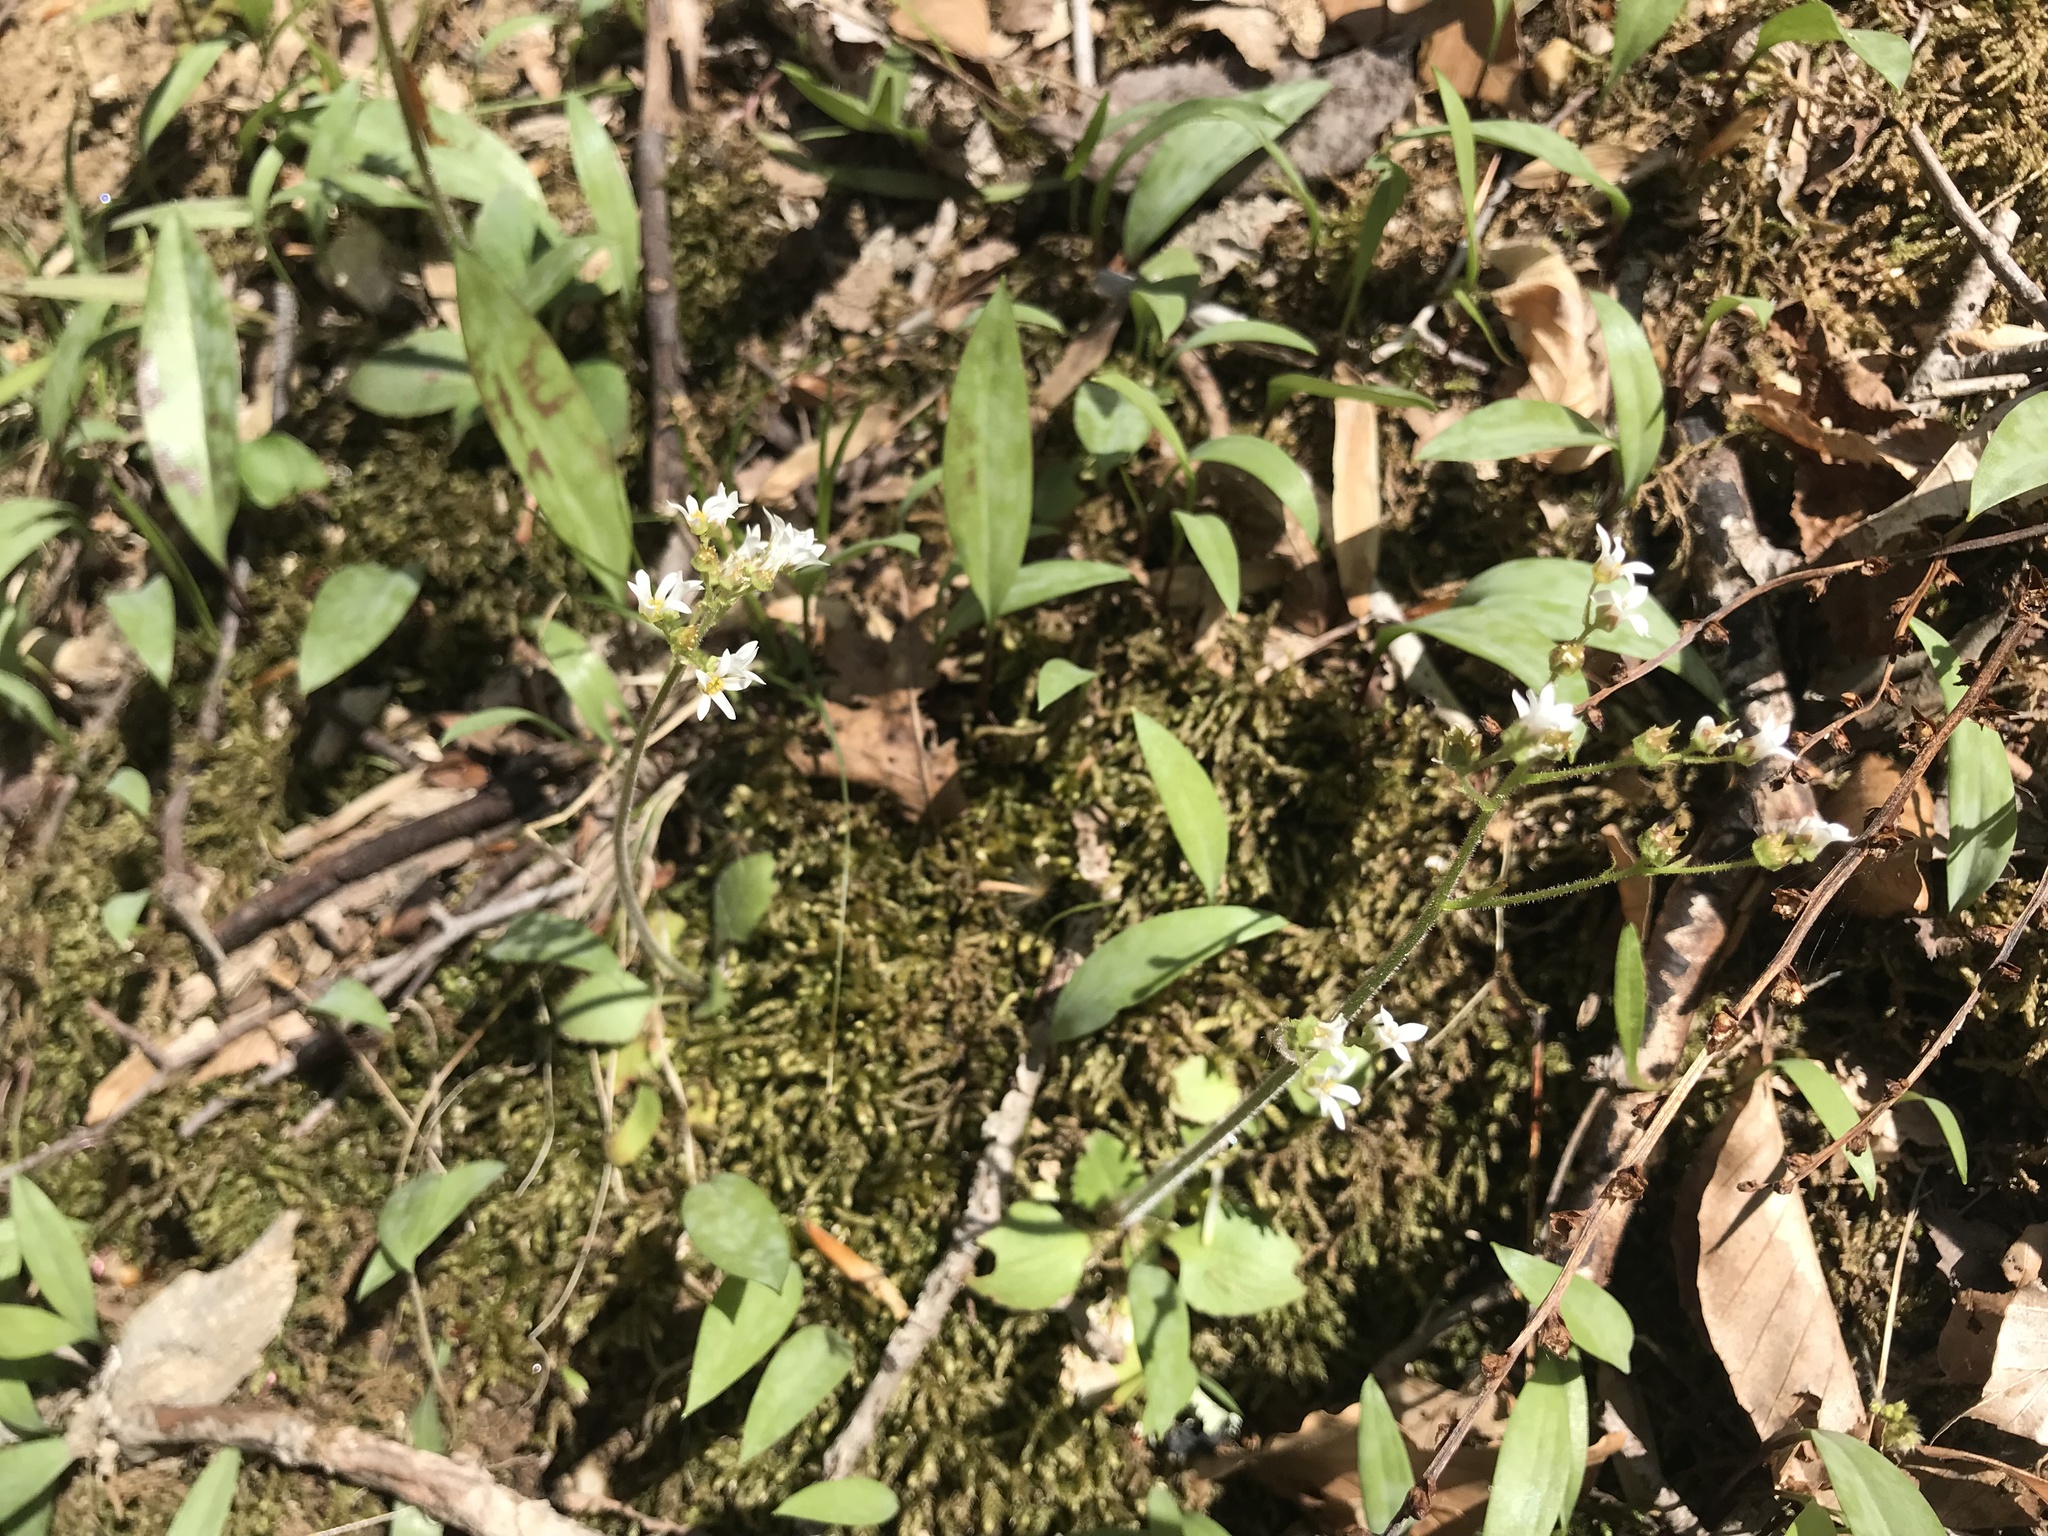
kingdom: Plantae
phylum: Tracheophyta
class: Magnoliopsida
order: Saxifragales
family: Saxifragaceae
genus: Micranthes
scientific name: Micranthes virginiensis
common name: Early saxifrage
